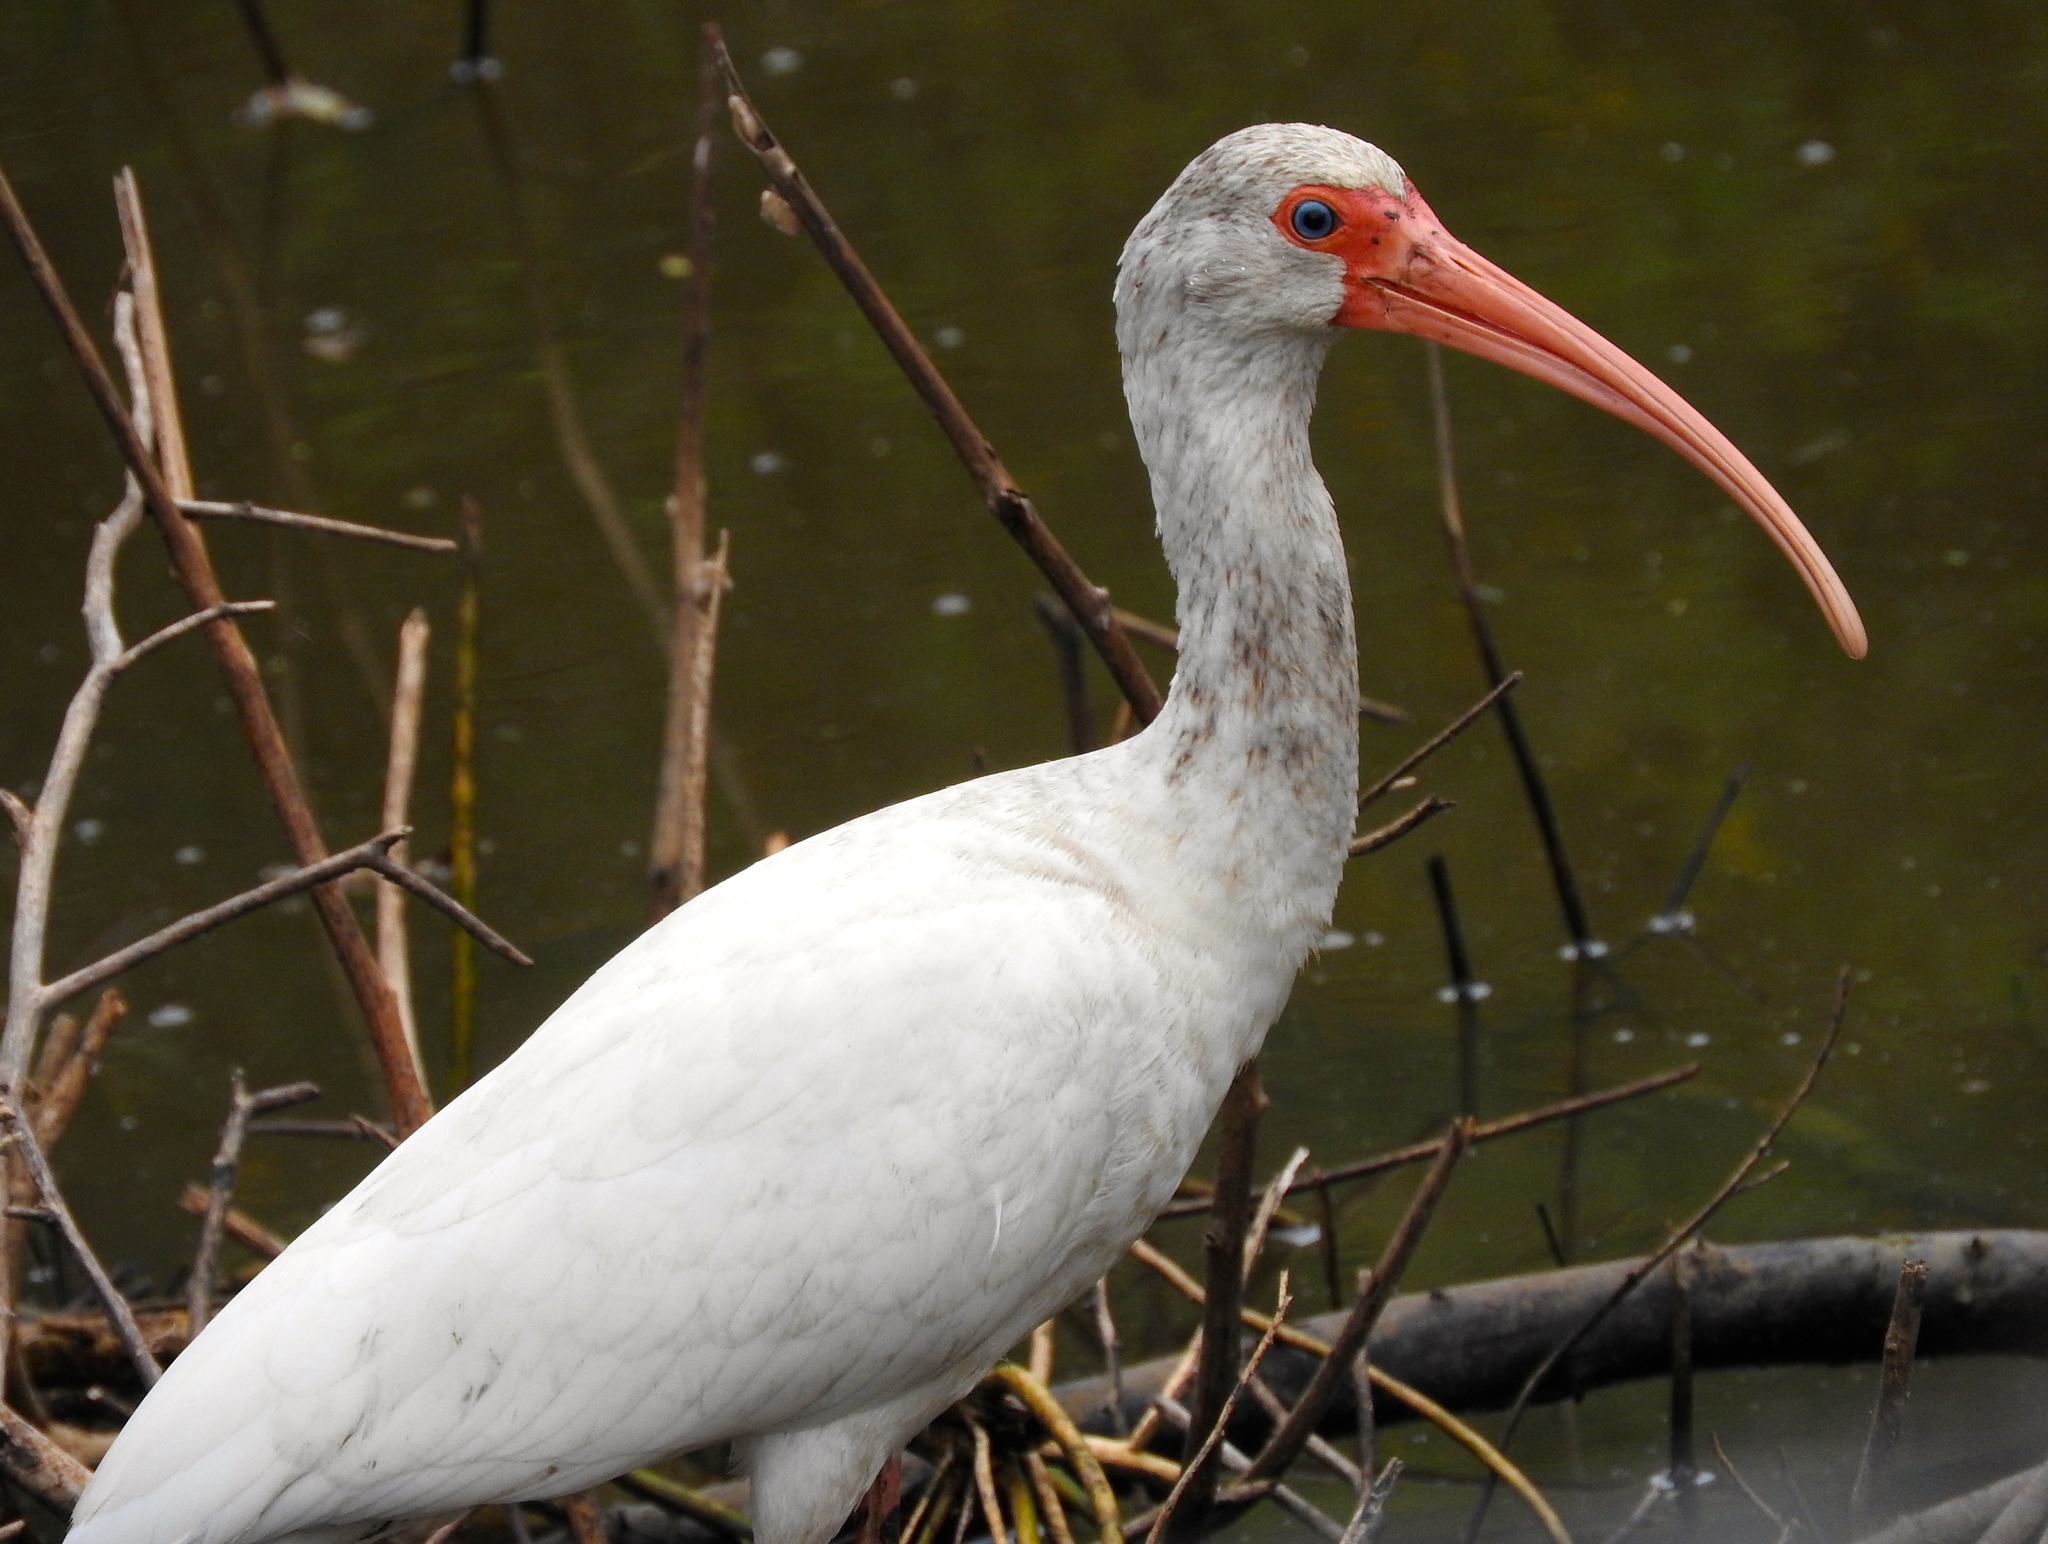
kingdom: Animalia
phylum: Chordata
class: Aves
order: Pelecaniformes
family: Threskiornithidae
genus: Eudocimus
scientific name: Eudocimus albus
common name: White ibis
